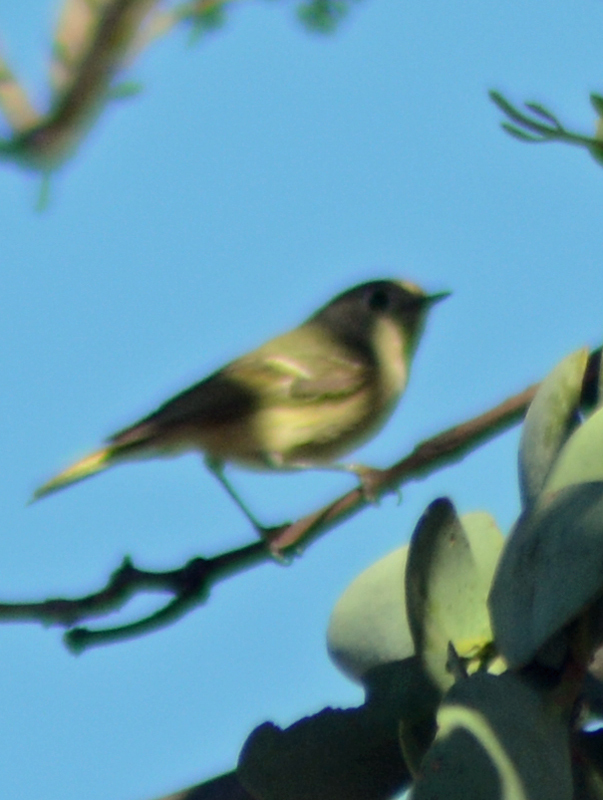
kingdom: Animalia
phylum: Chordata
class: Aves
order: Passeriformes
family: Regulidae
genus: Regulus
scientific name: Regulus calendula
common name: Ruby-crowned kinglet
